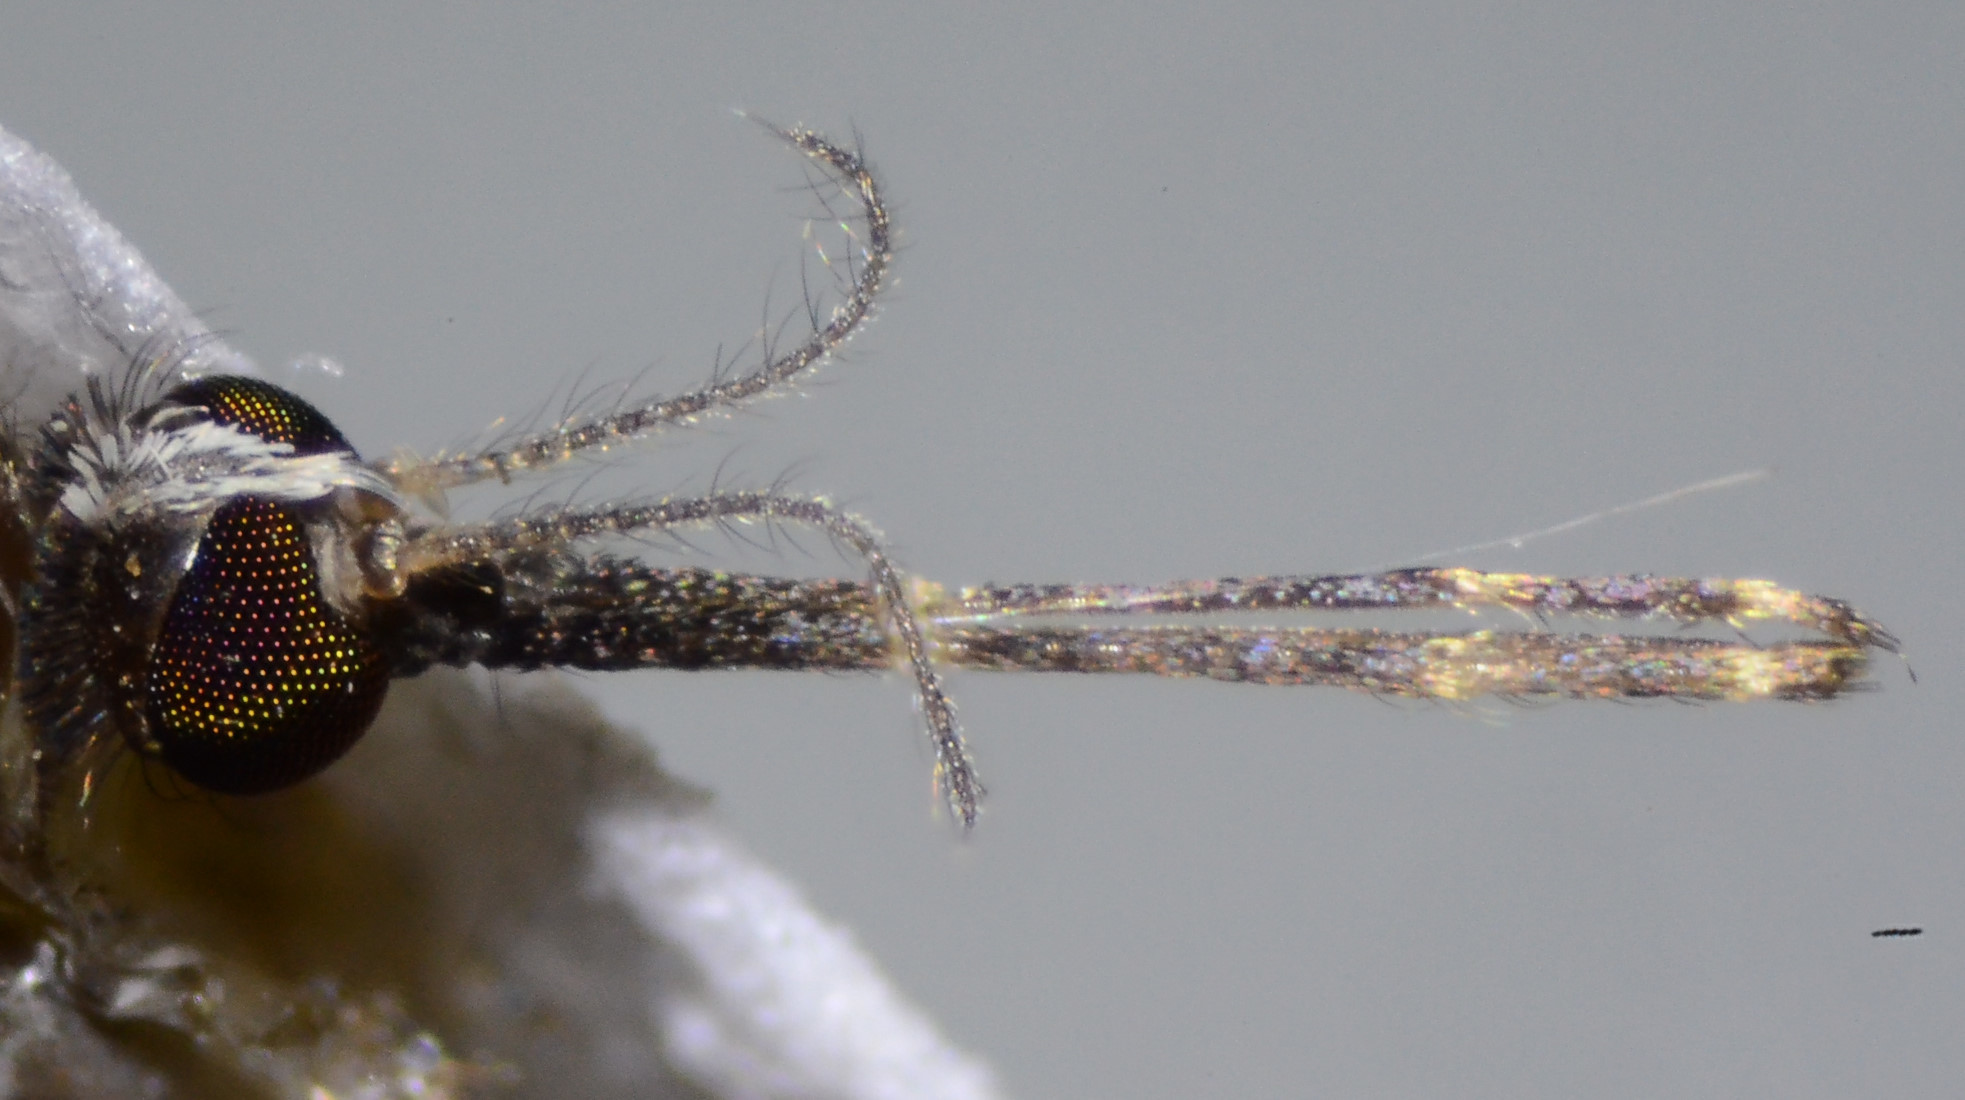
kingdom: Animalia
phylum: Arthropoda
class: Insecta
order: Diptera
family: Culicidae
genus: Anopheles
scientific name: Anopheles franciscanus
